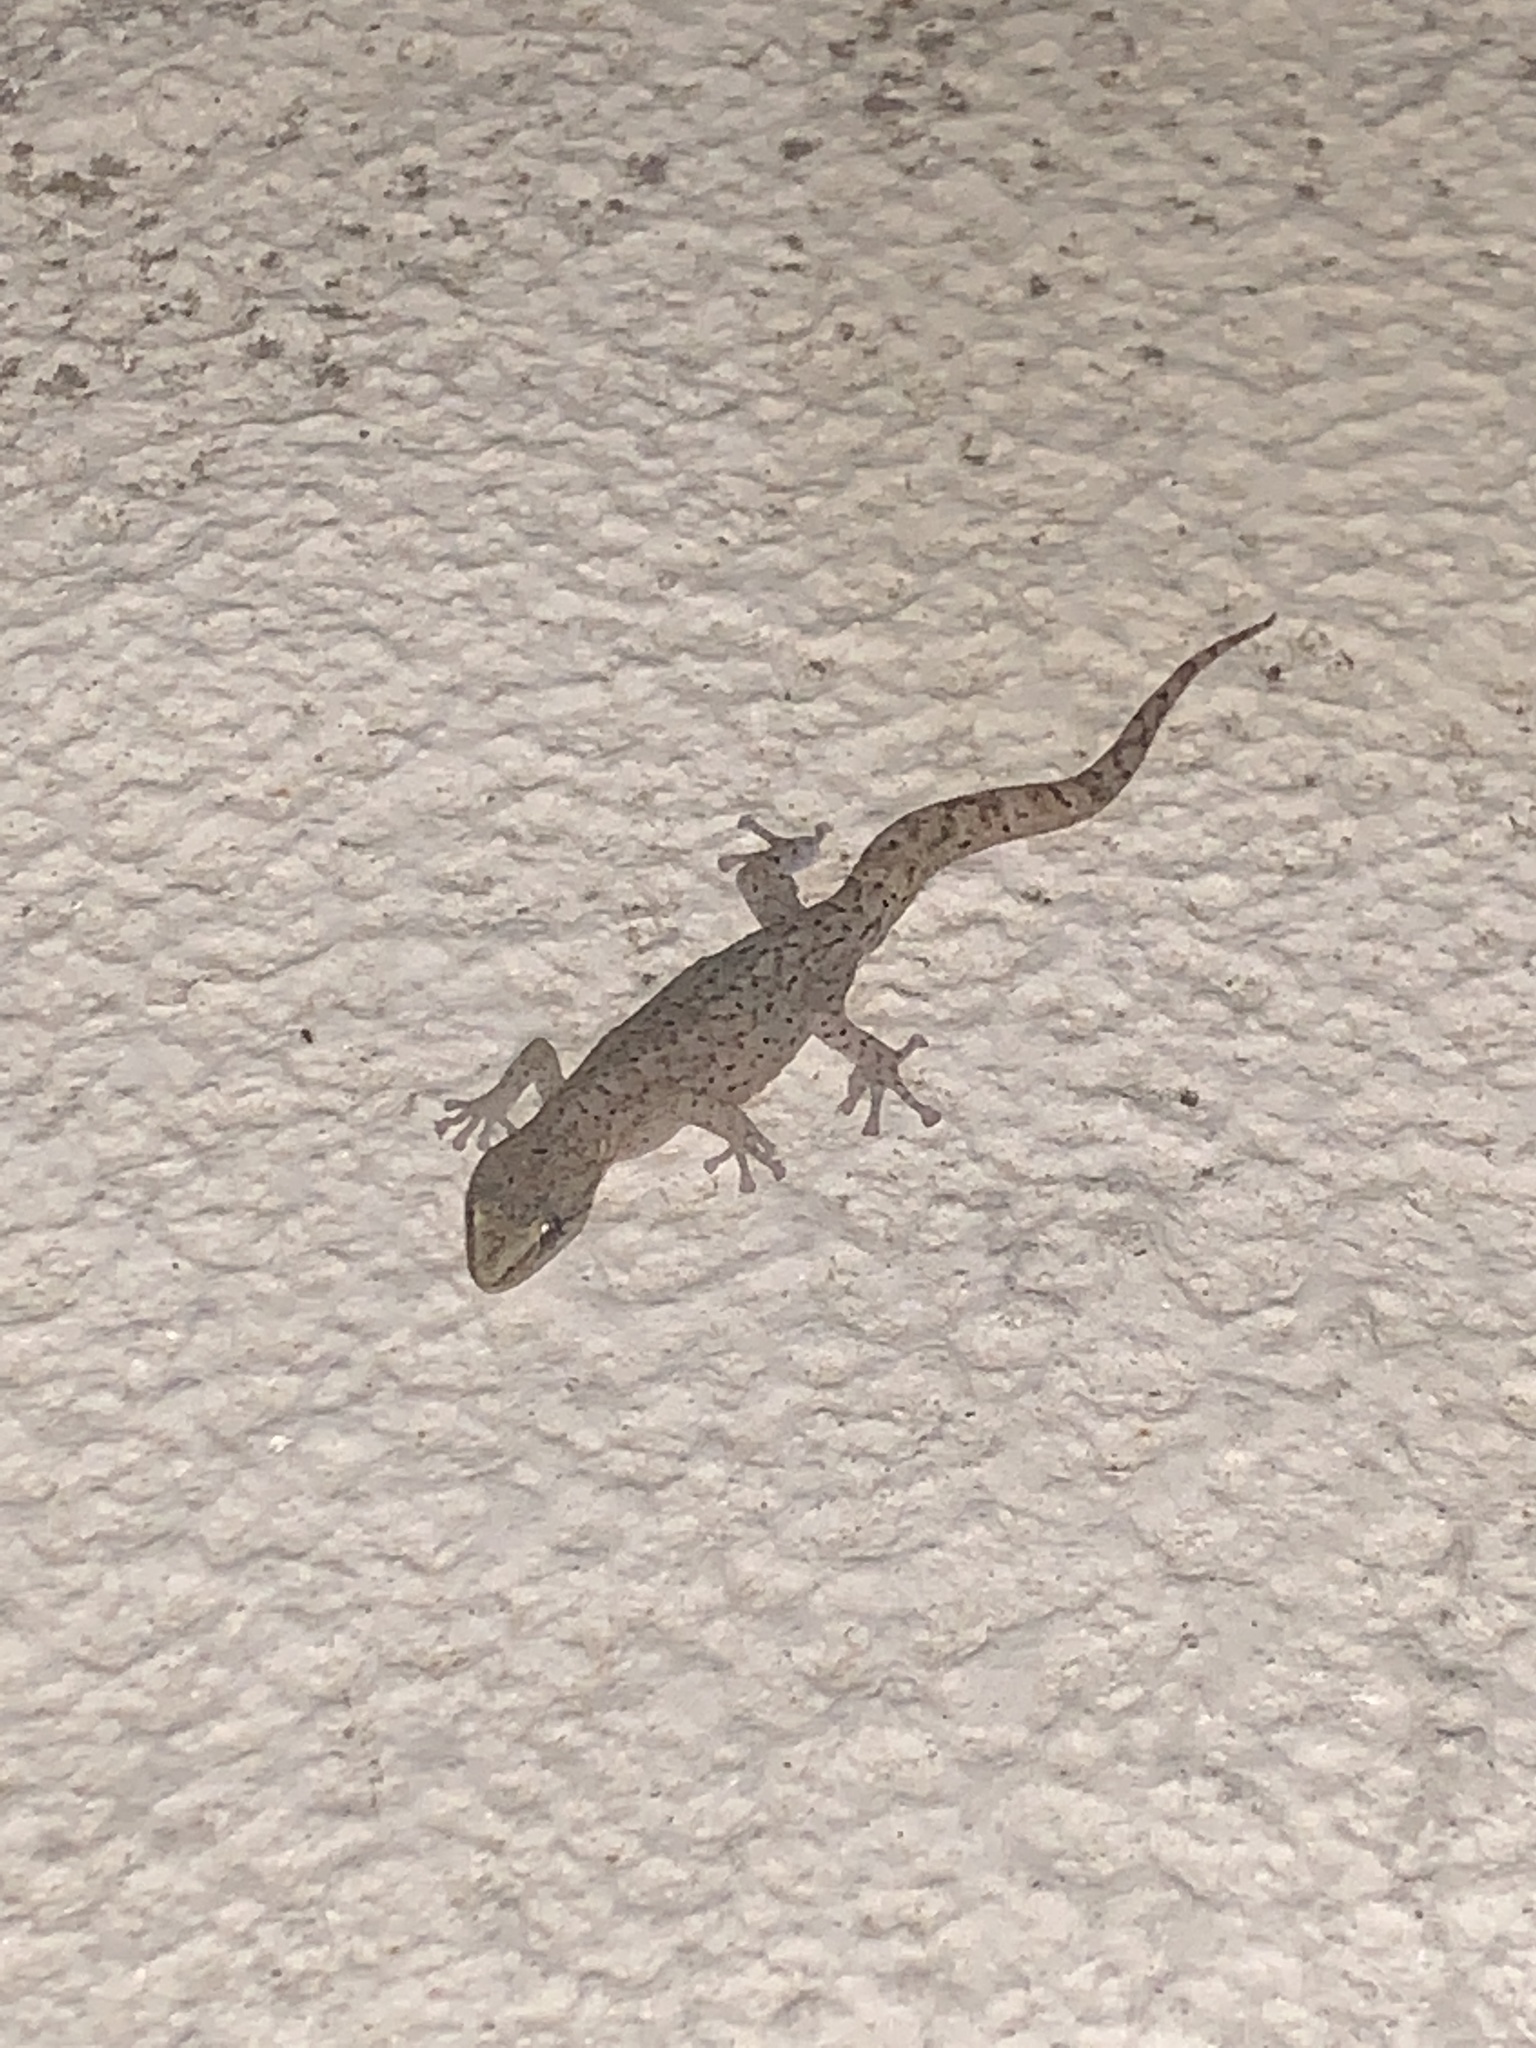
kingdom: Animalia
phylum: Chordata
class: Squamata
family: Gekkonidae
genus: Afrogecko
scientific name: Afrogecko porphyreus
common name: Marbled leaf-toed gecko
